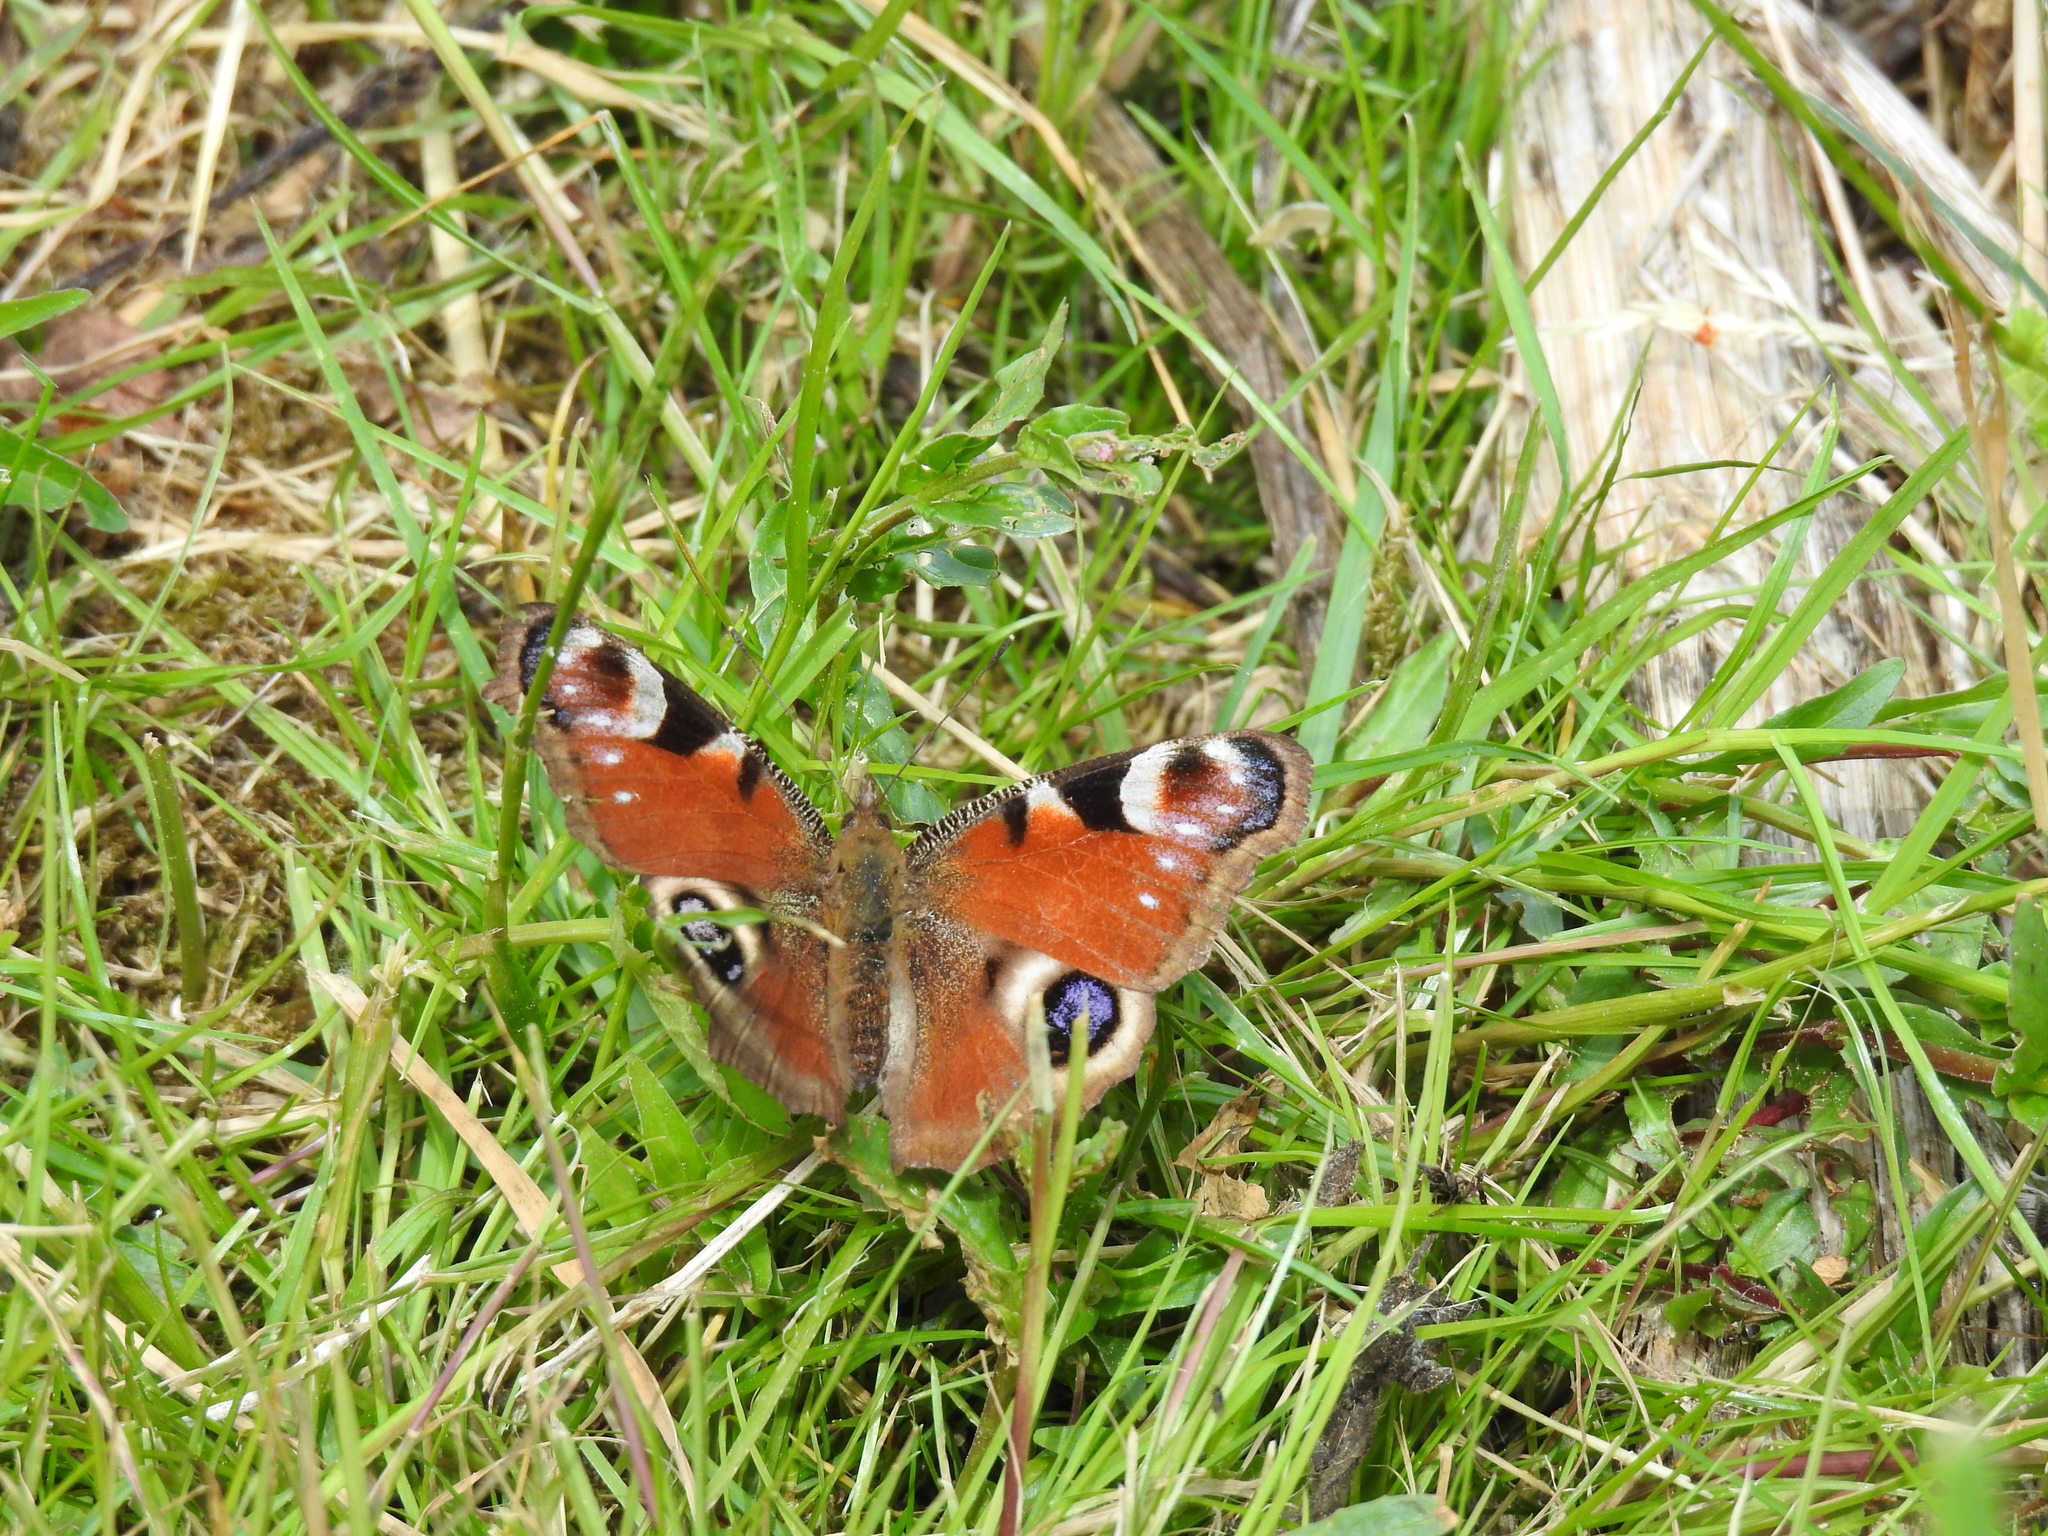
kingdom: Animalia
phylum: Arthropoda
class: Insecta
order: Lepidoptera
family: Nymphalidae
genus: Aglais
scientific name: Aglais io
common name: Peacock
